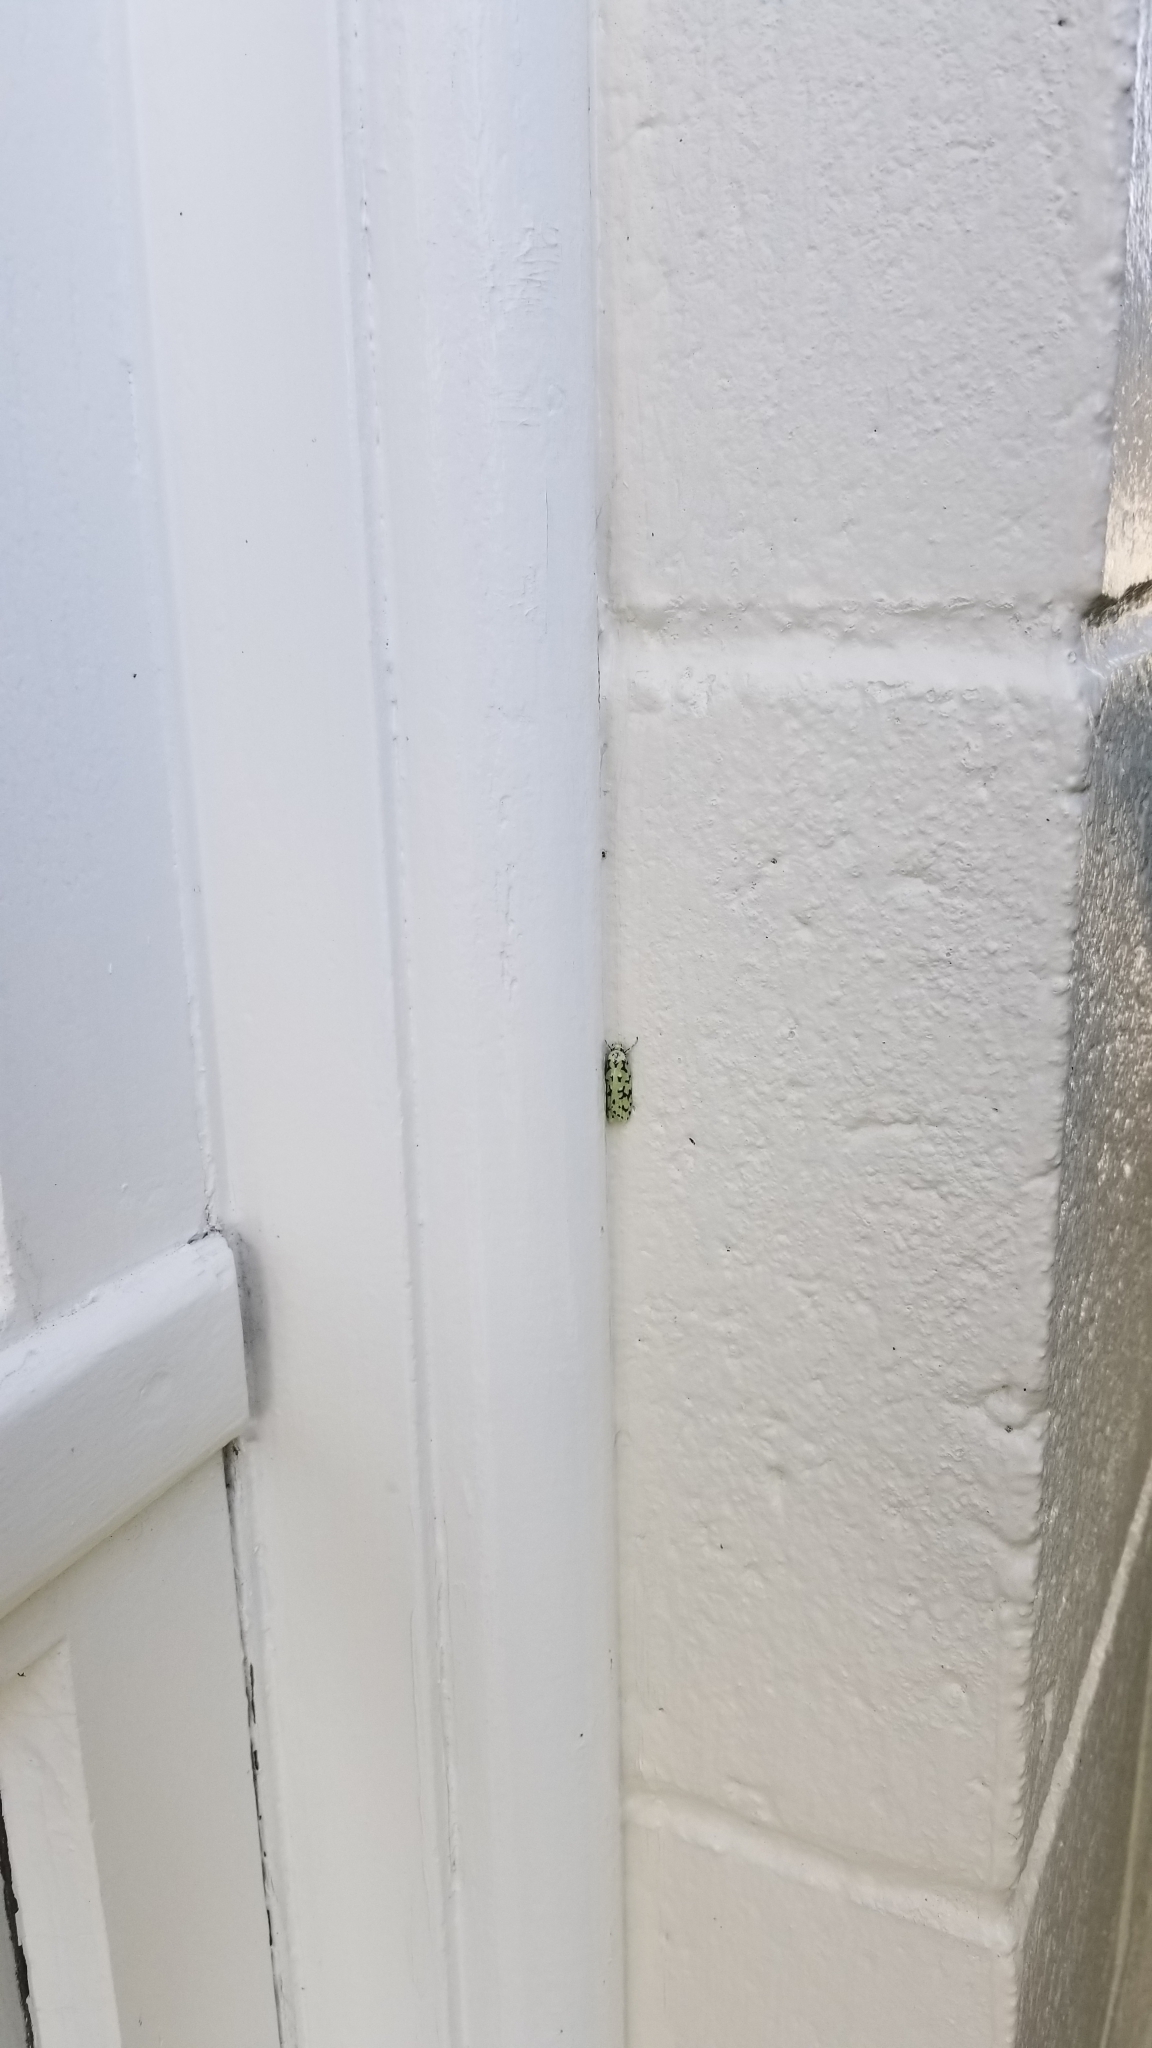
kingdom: Animalia
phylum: Arthropoda
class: Insecta
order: Lepidoptera
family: Oecophoridae
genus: Izatha
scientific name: Izatha huttoni
